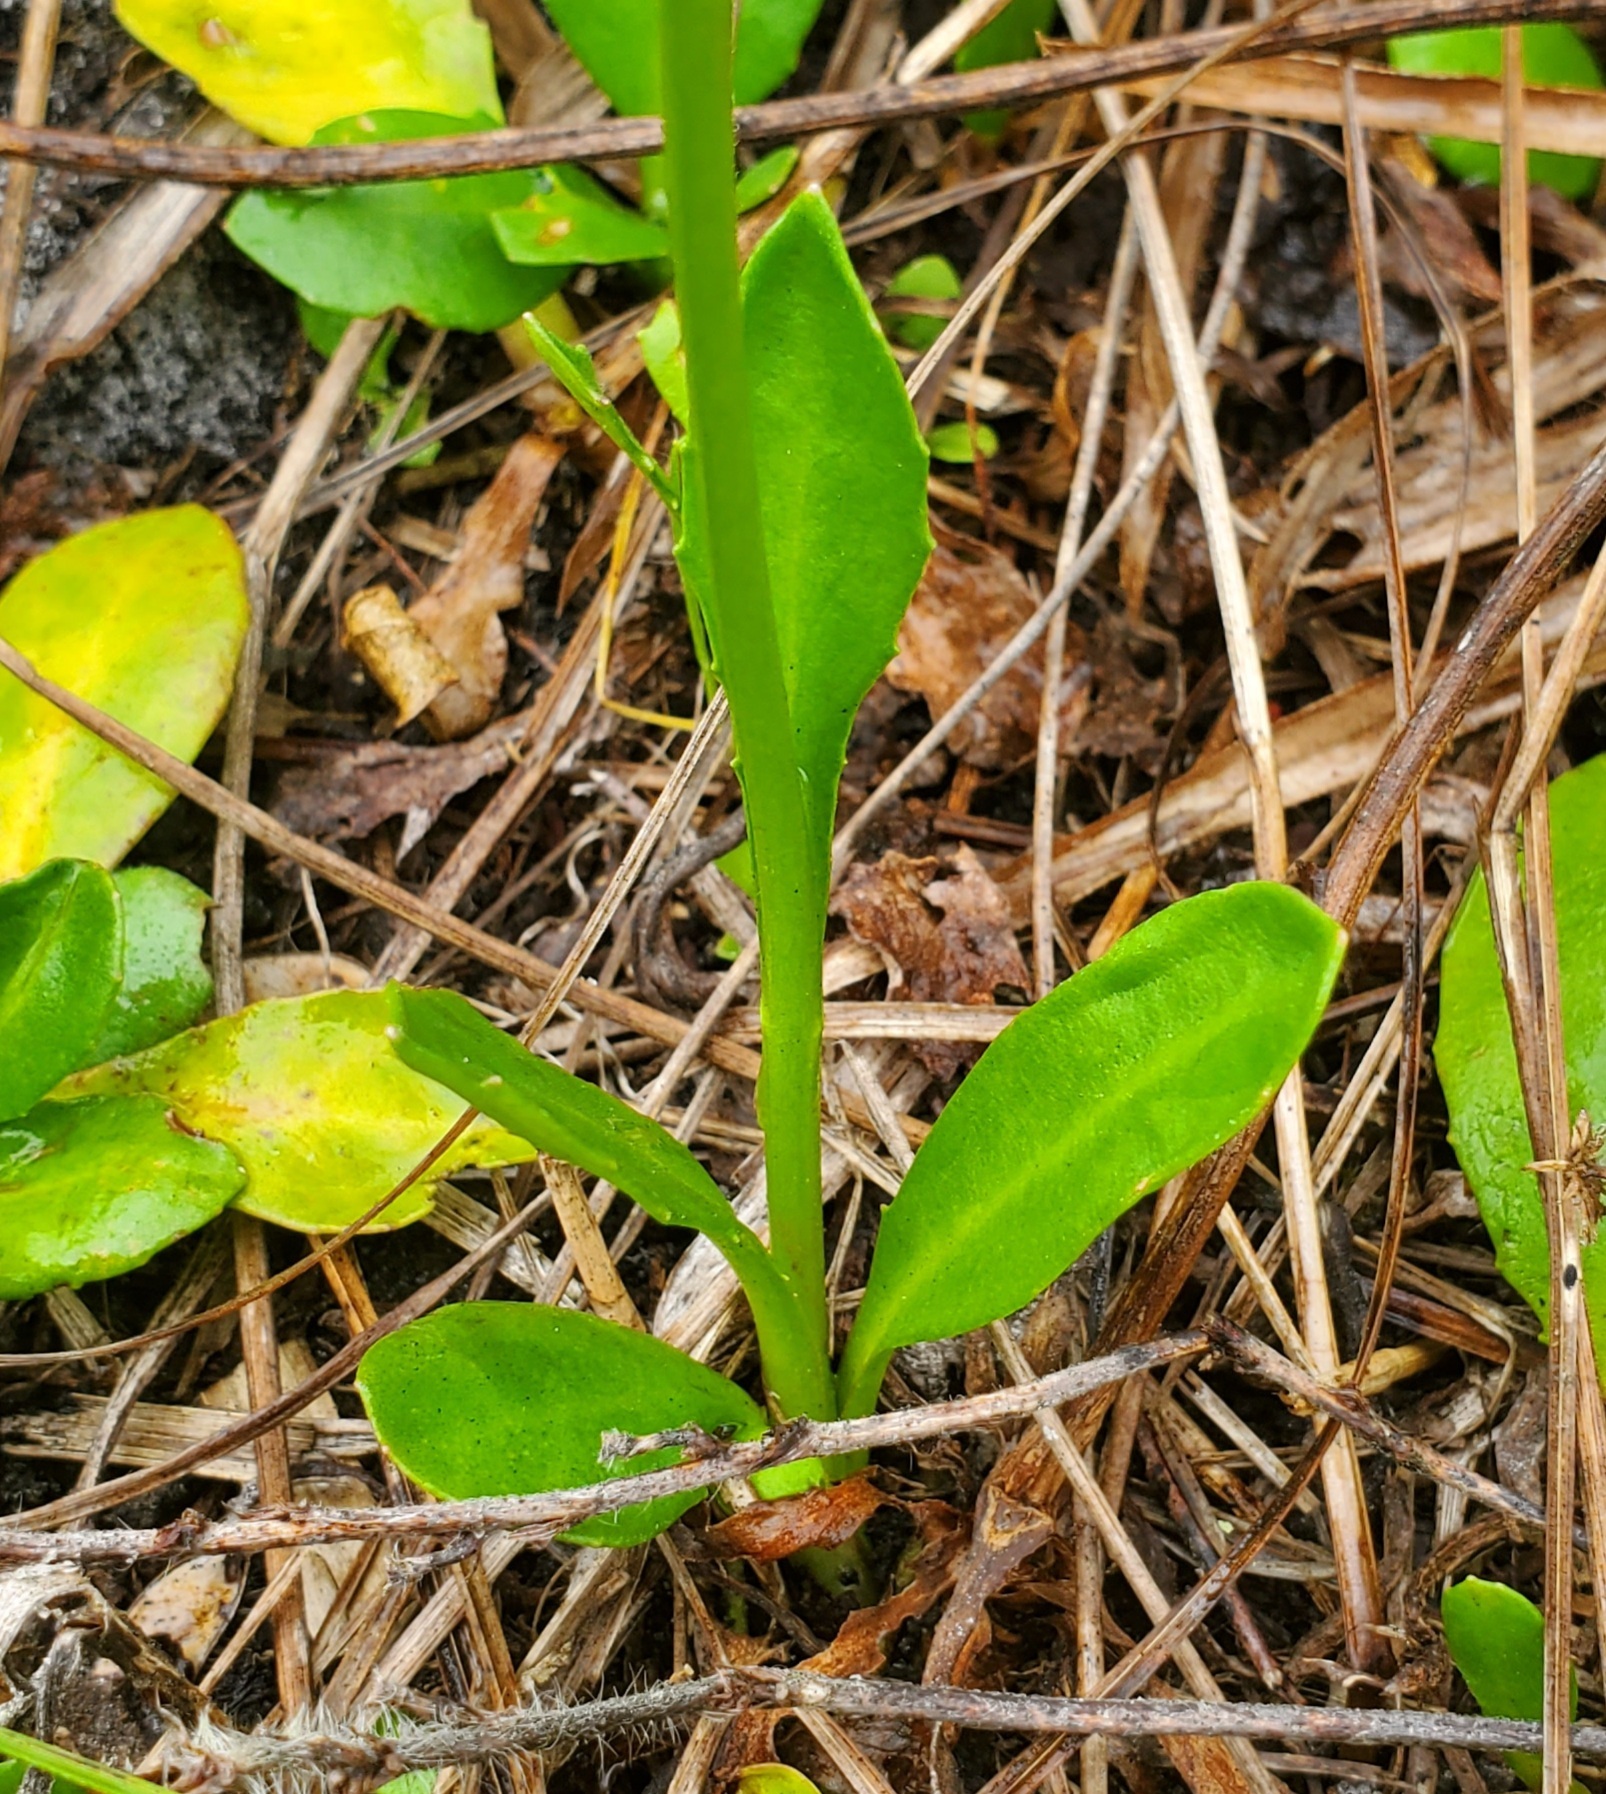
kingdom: Plantae
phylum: Tracheophyta
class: Magnoliopsida
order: Asterales
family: Asteraceae
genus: Erigeron
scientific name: Erigeron vernus
